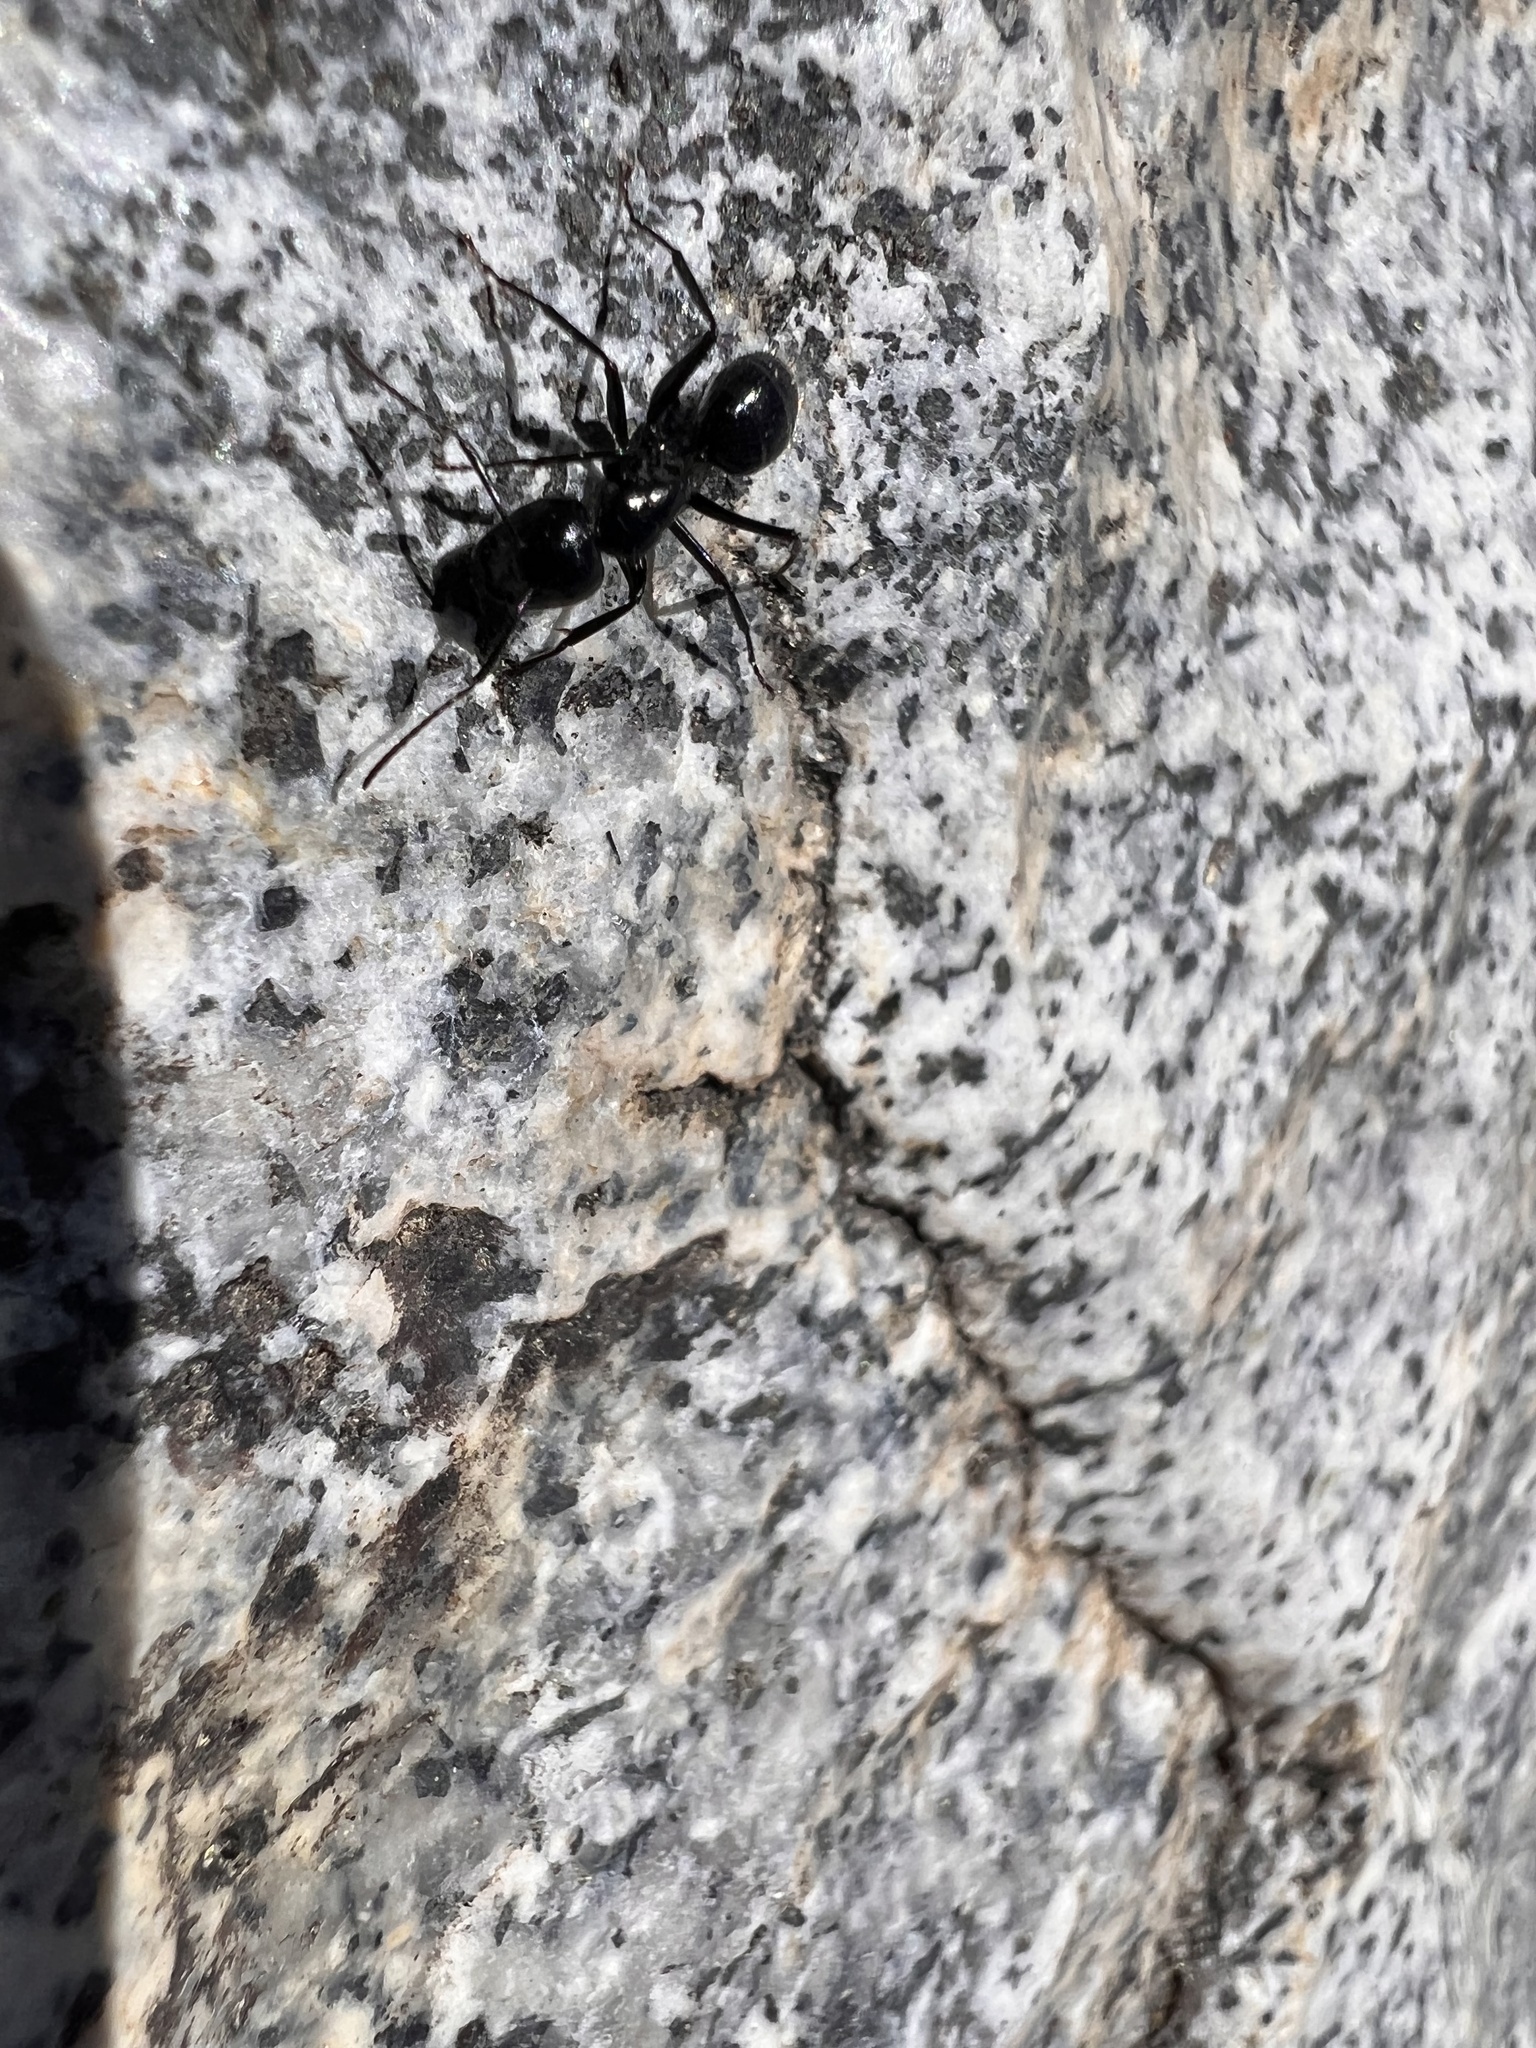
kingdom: Animalia
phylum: Arthropoda
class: Insecta
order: Hymenoptera
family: Formicidae
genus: Camponotus
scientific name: Camponotus
